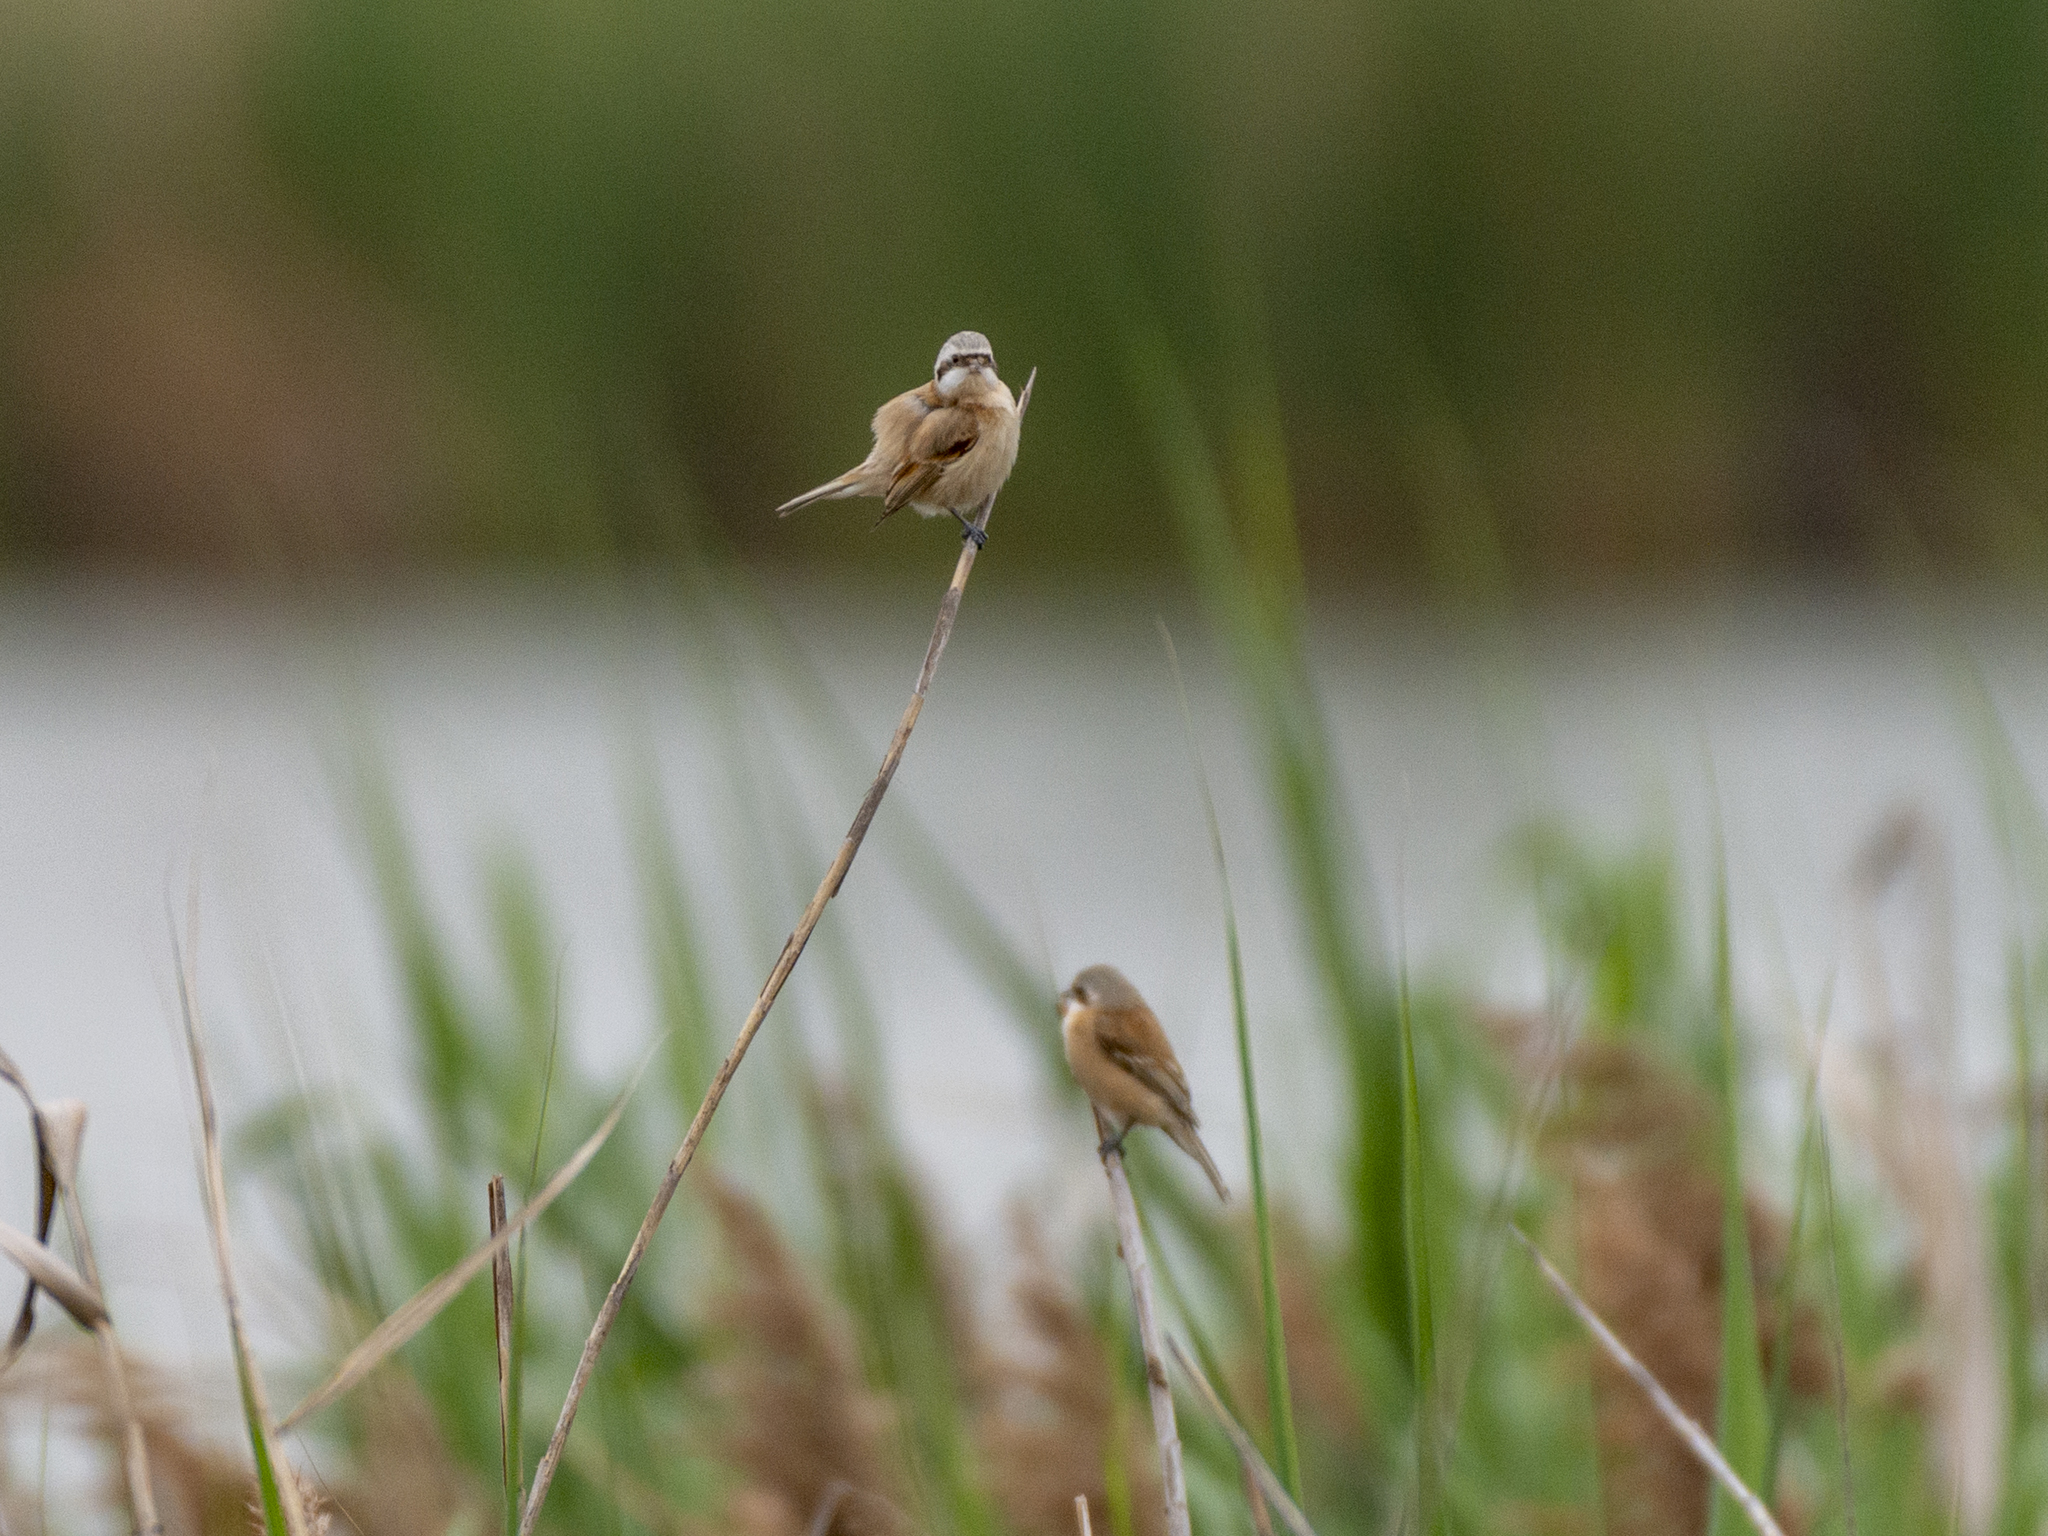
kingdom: Animalia
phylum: Chordata
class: Aves
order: Passeriformes
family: Remizidae
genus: Remiz
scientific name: Remiz consobrinus
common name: Chinese penduline tit
